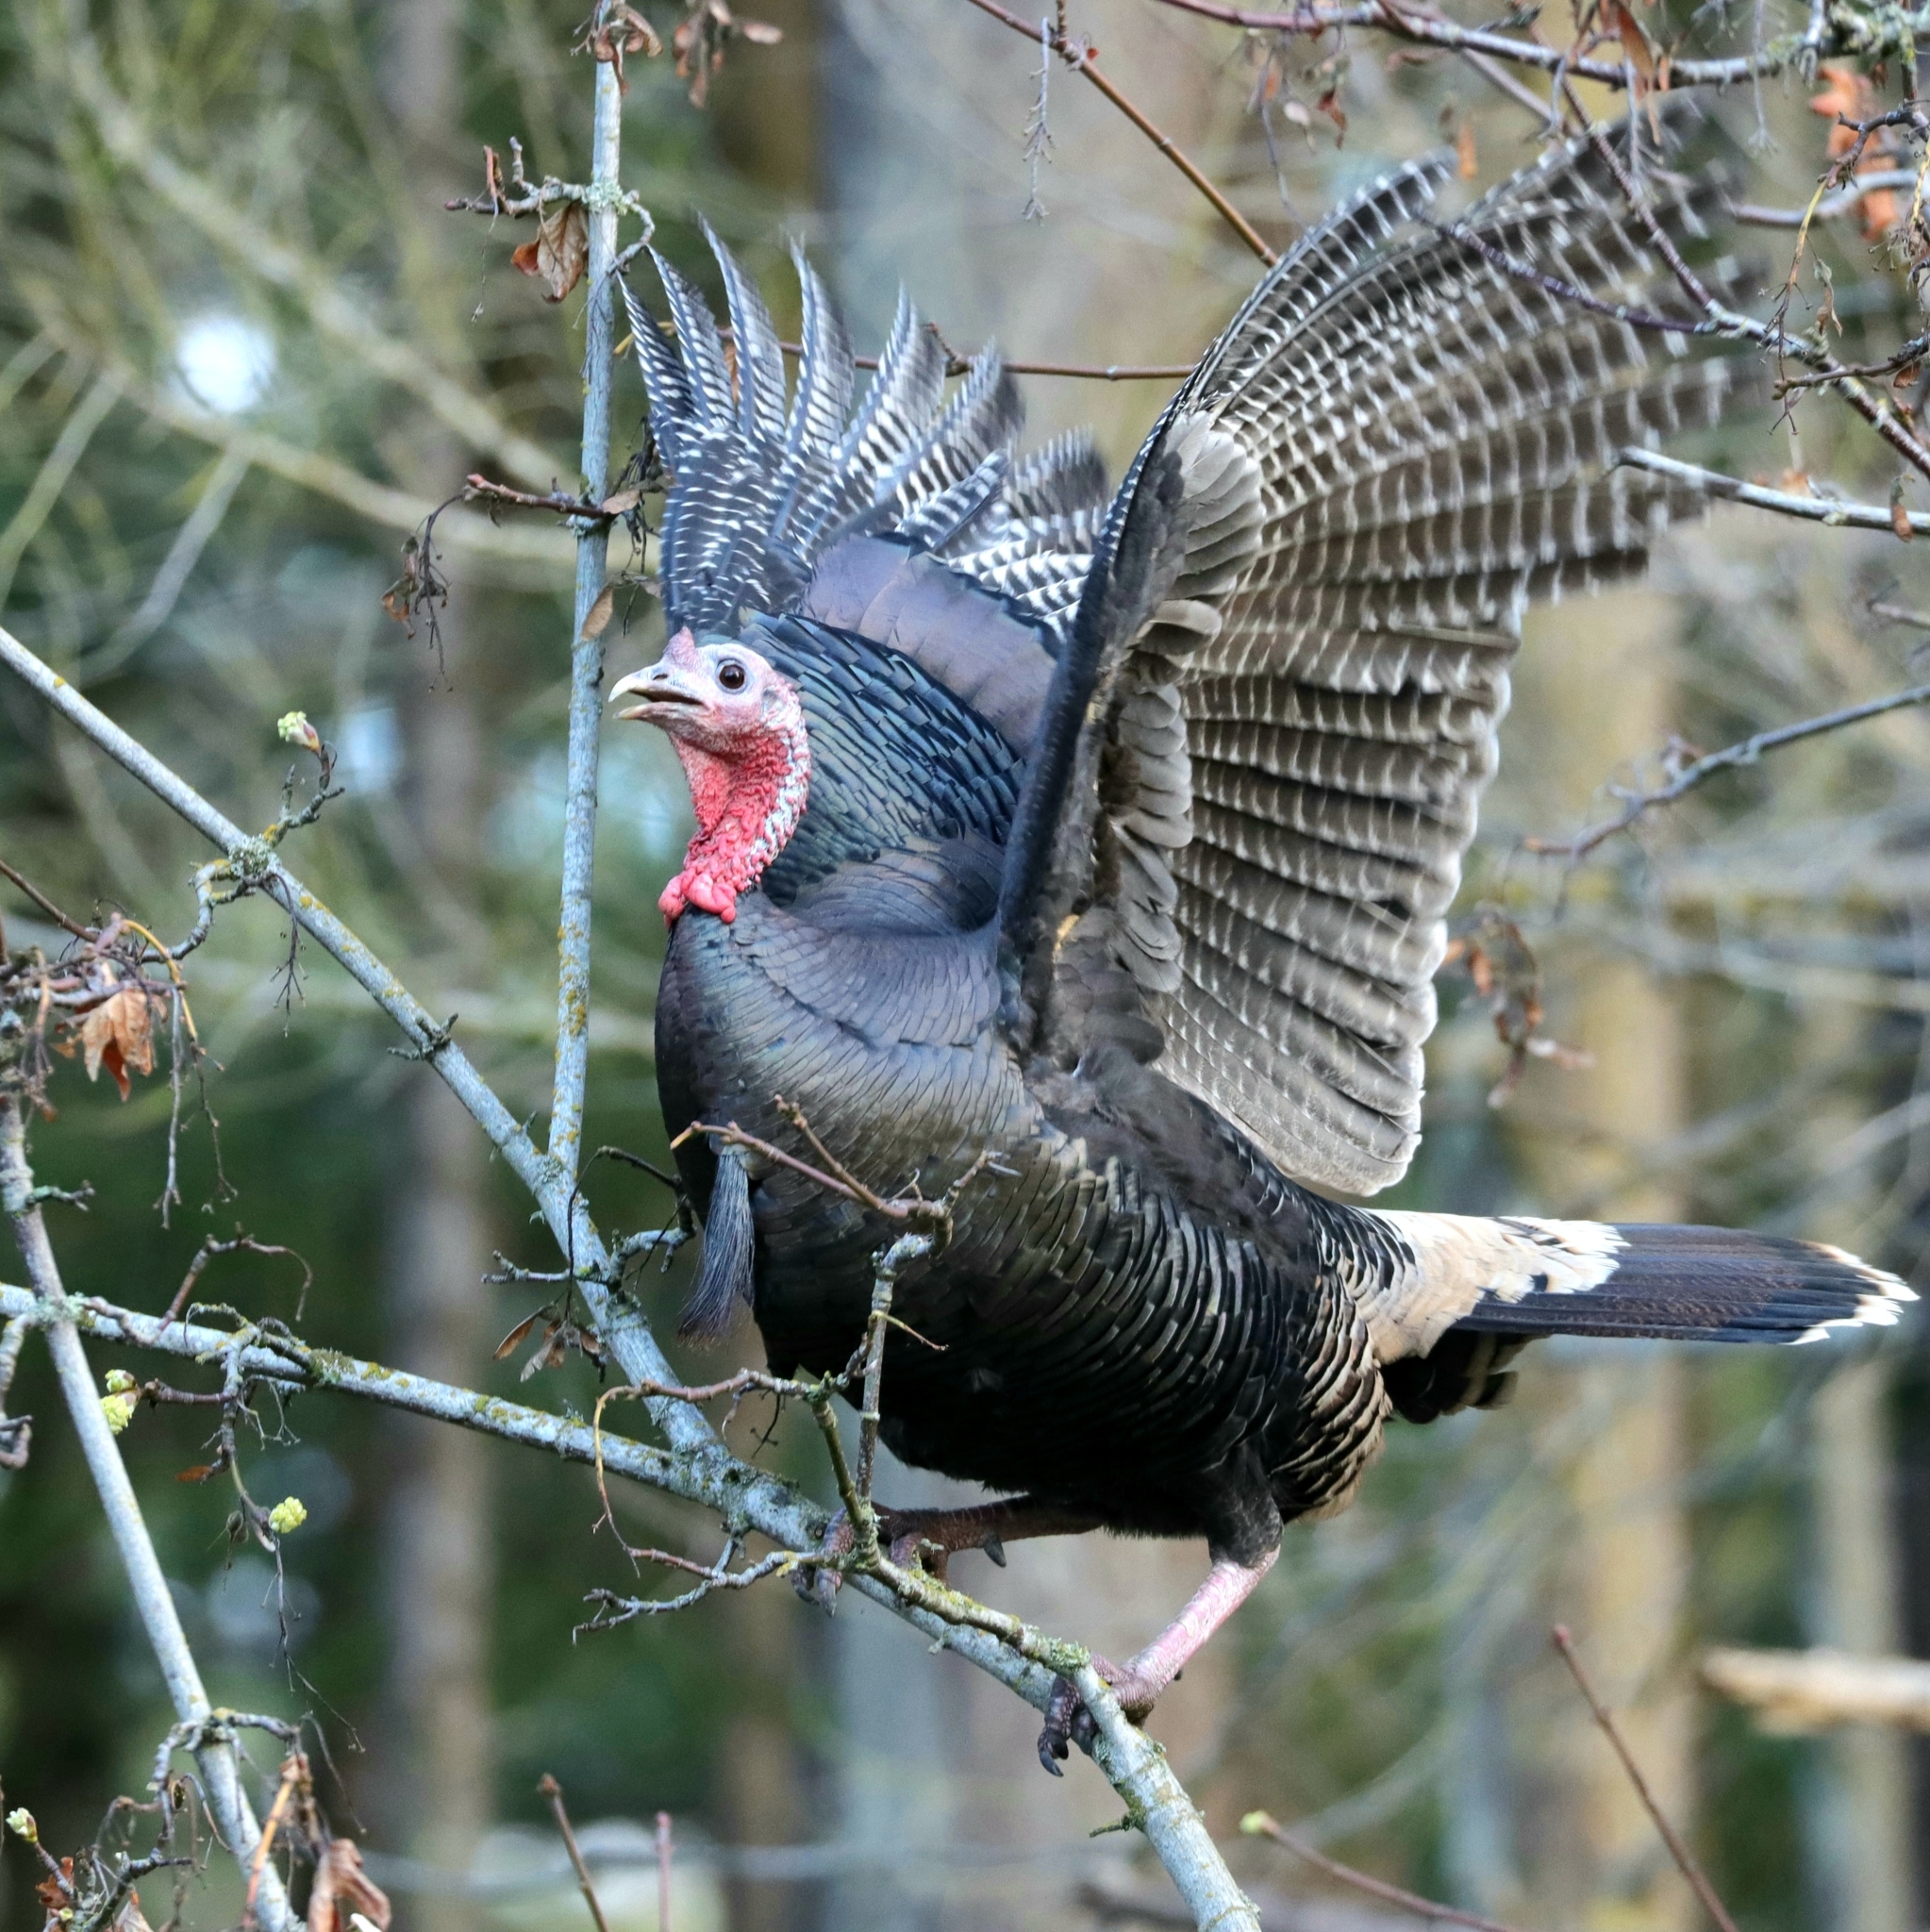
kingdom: Animalia
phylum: Chordata
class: Aves
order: Galliformes
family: Phasianidae
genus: Meleagris
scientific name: Meleagris gallopavo
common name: Wild turkey
